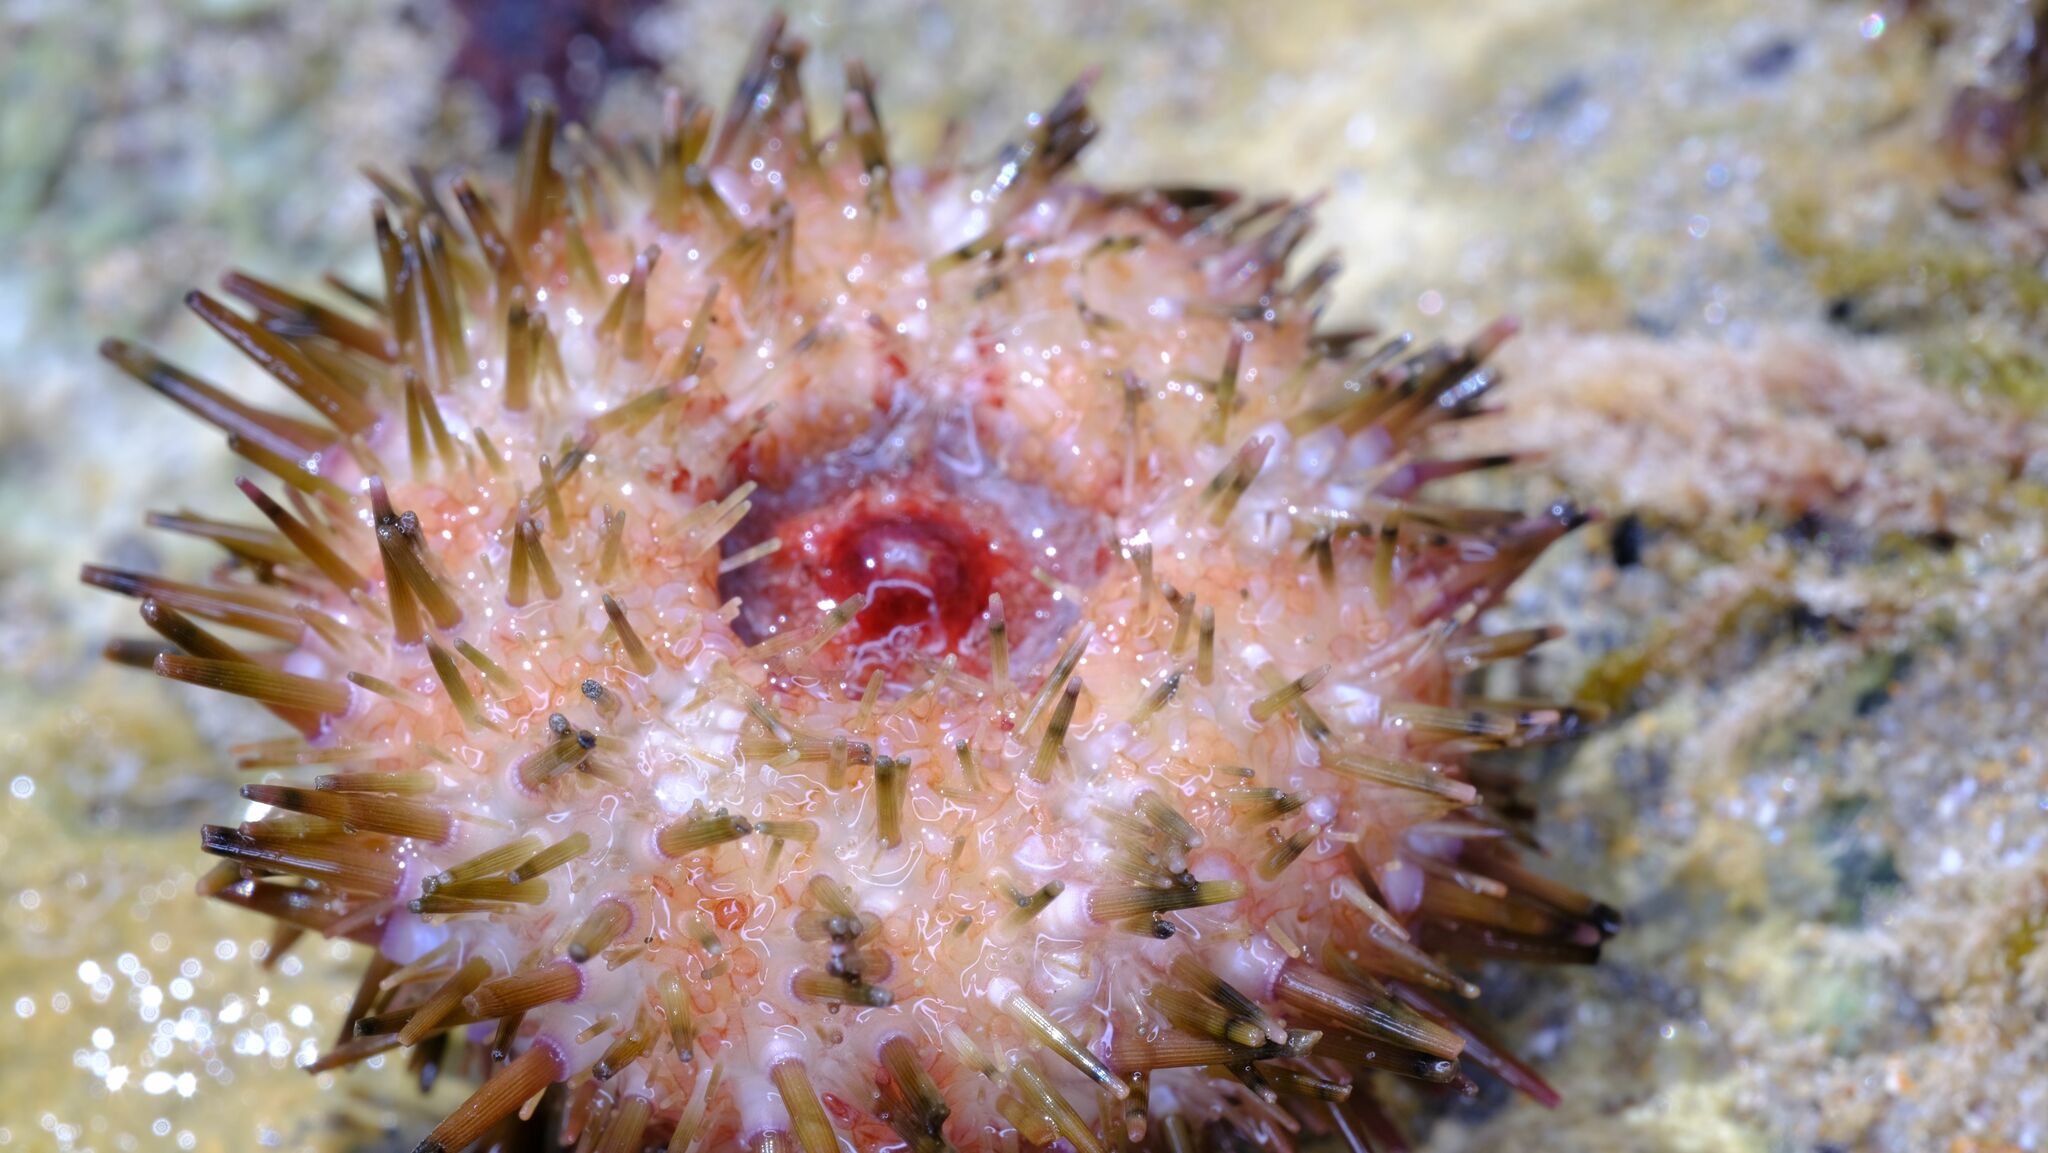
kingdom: Animalia
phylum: Echinodermata
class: Echinoidea
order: Camarodonta
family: Echinometridae
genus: Heliocidaris
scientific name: Heliocidaris erythrogramma
